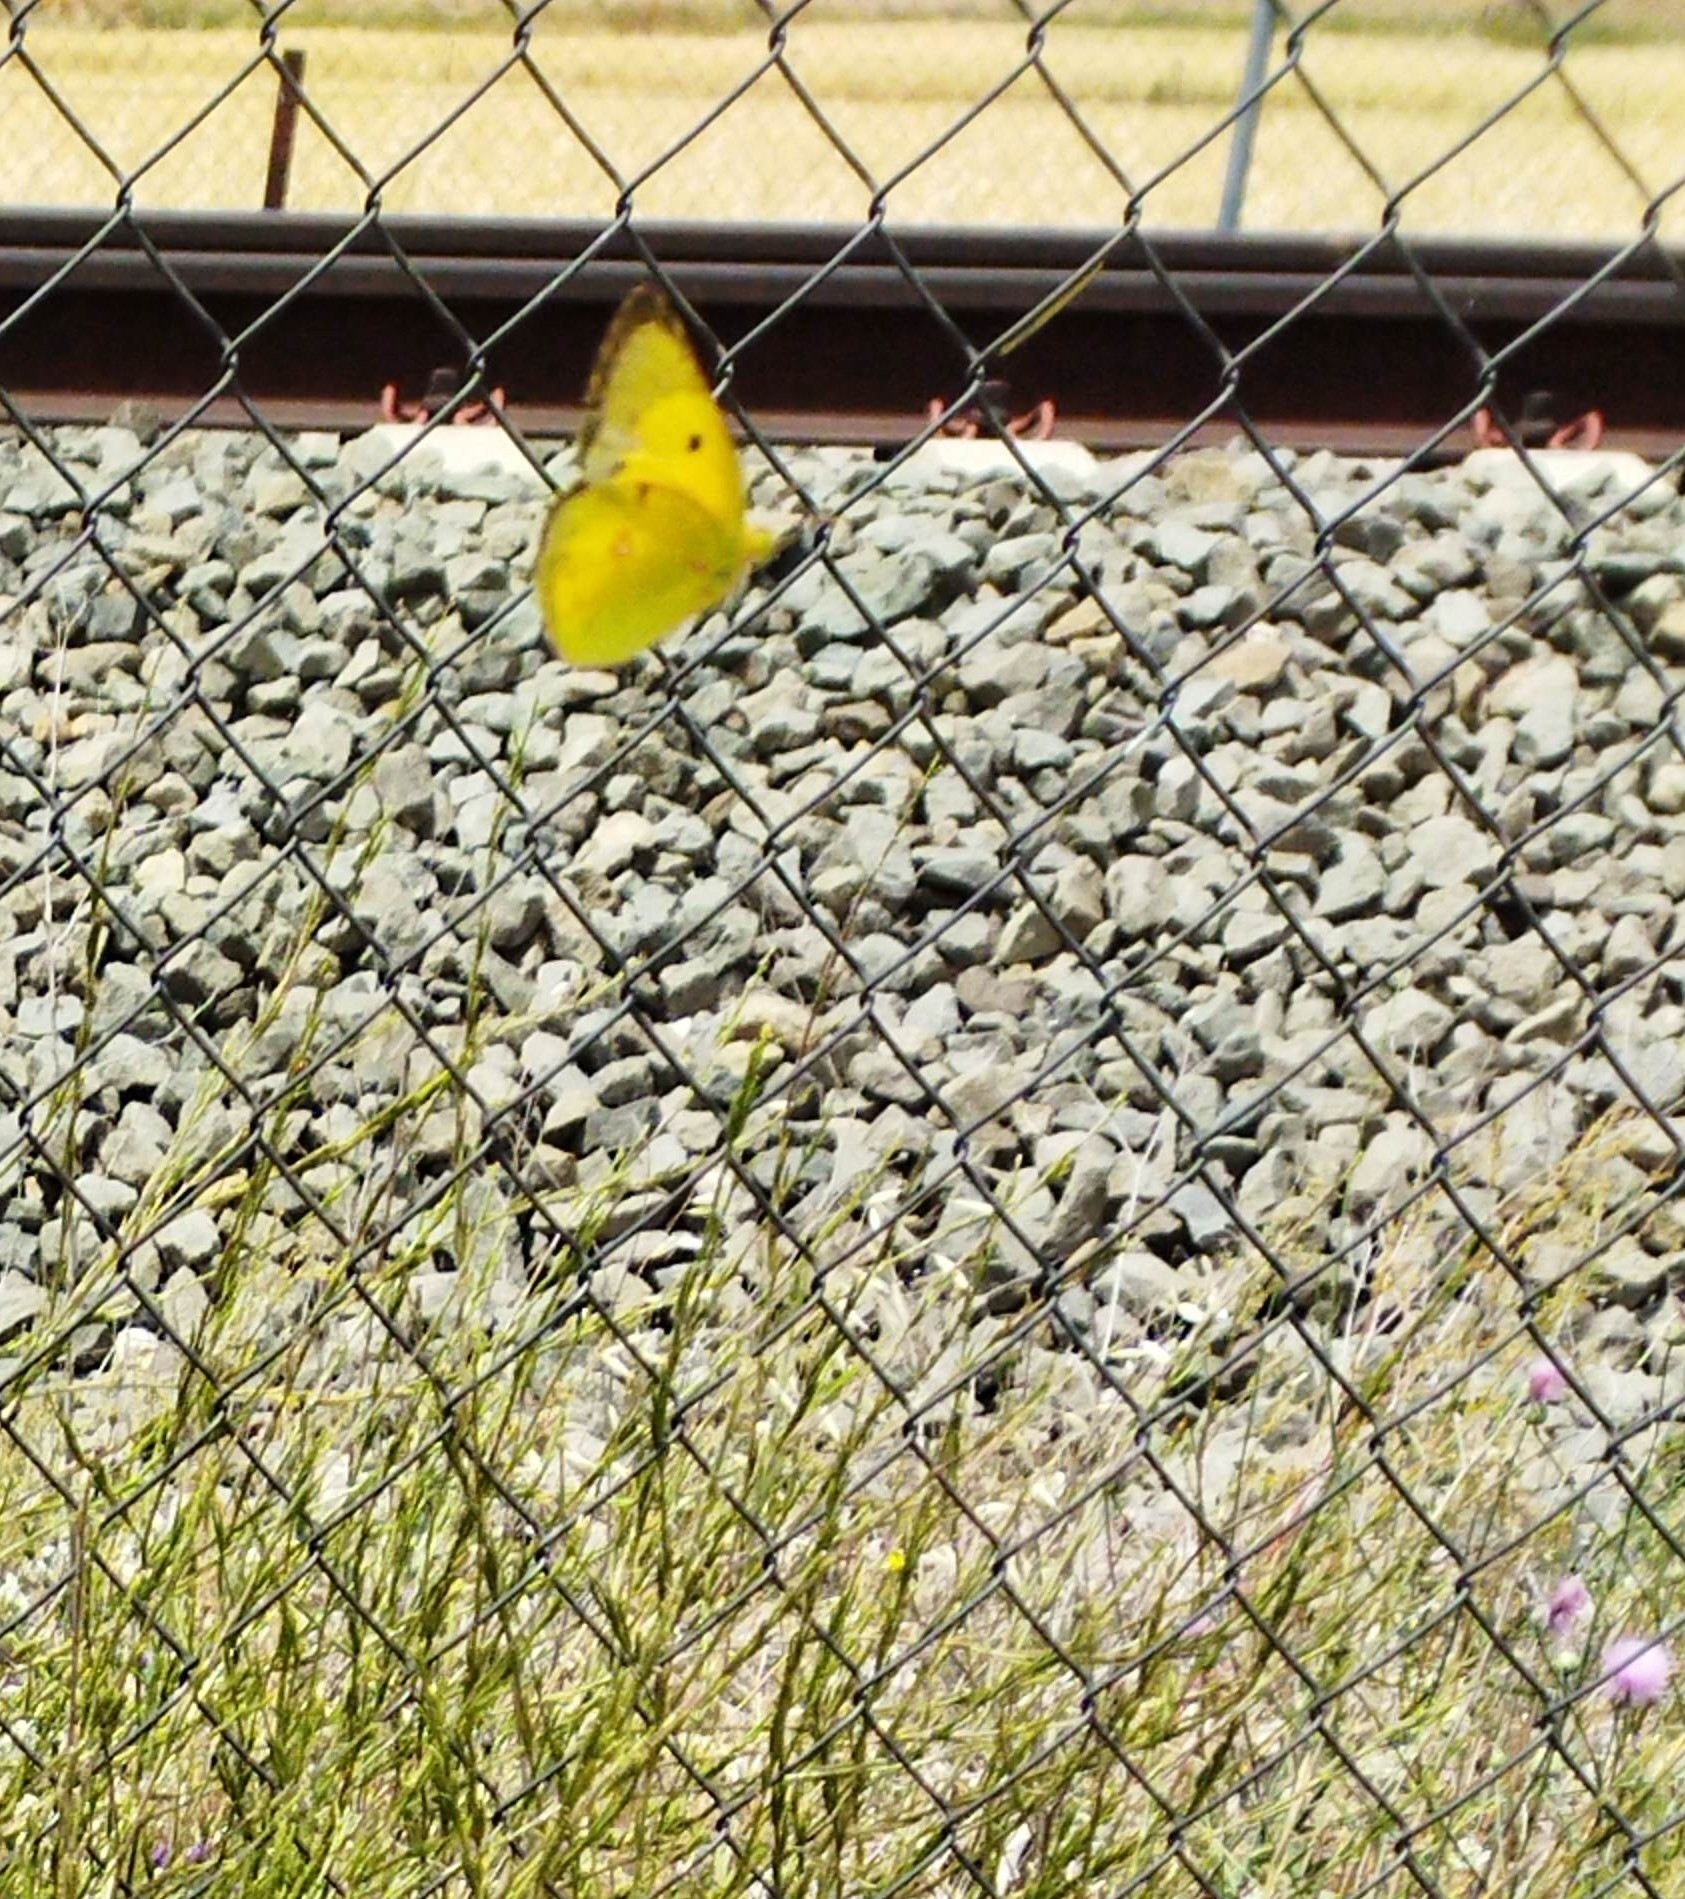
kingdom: Animalia
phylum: Arthropoda
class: Insecta
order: Lepidoptera
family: Pieridae
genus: Colias
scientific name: Colias croceus
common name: Clouded yellow
